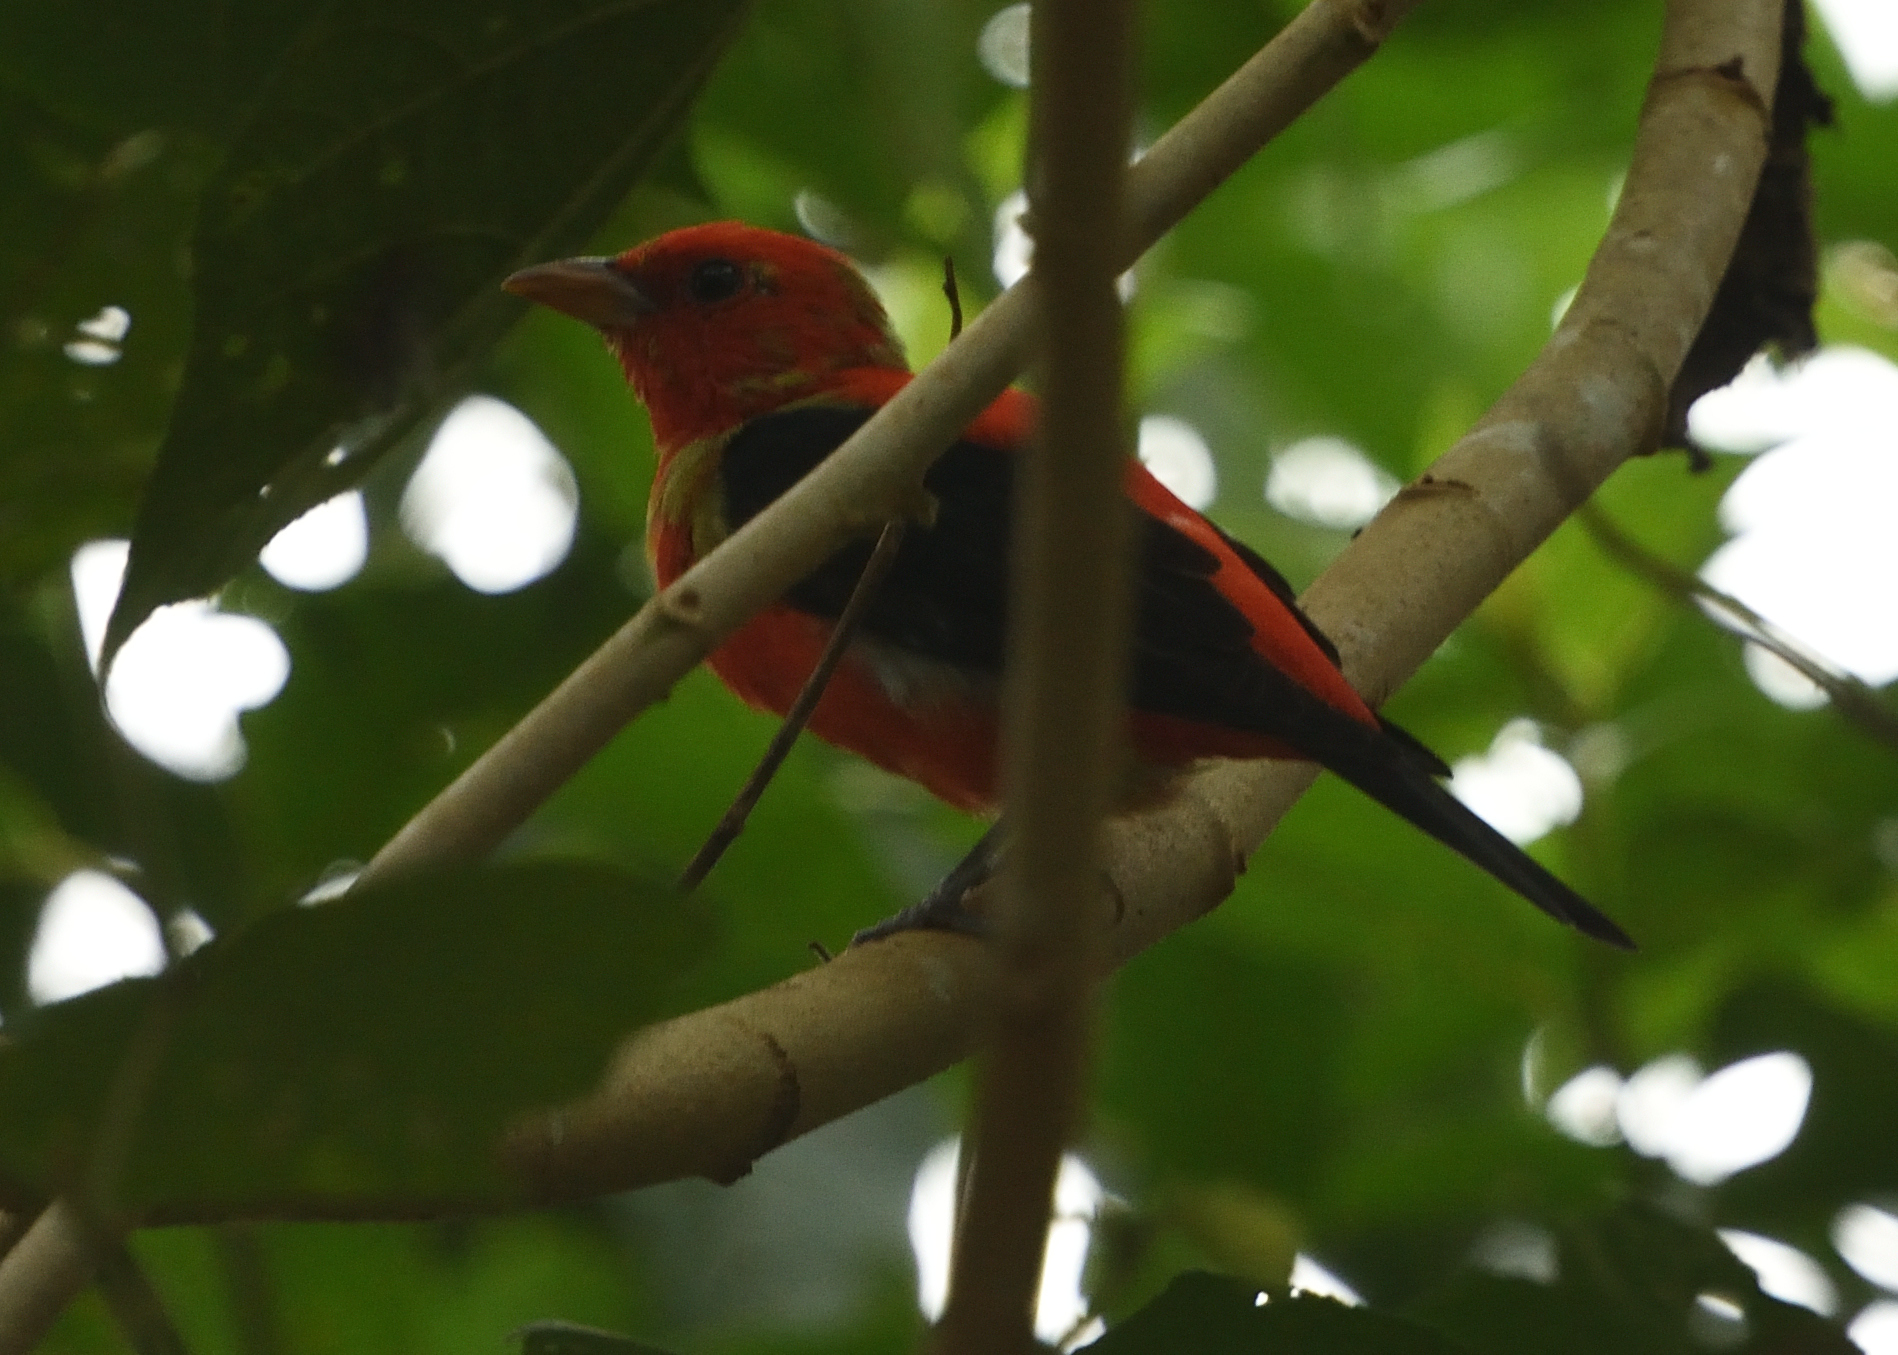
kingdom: Animalia
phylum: Chordata
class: Aves
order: Passeriformes
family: Cardinalidae
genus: Piranga
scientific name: Piranga olivacea
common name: Scarlet tanager
